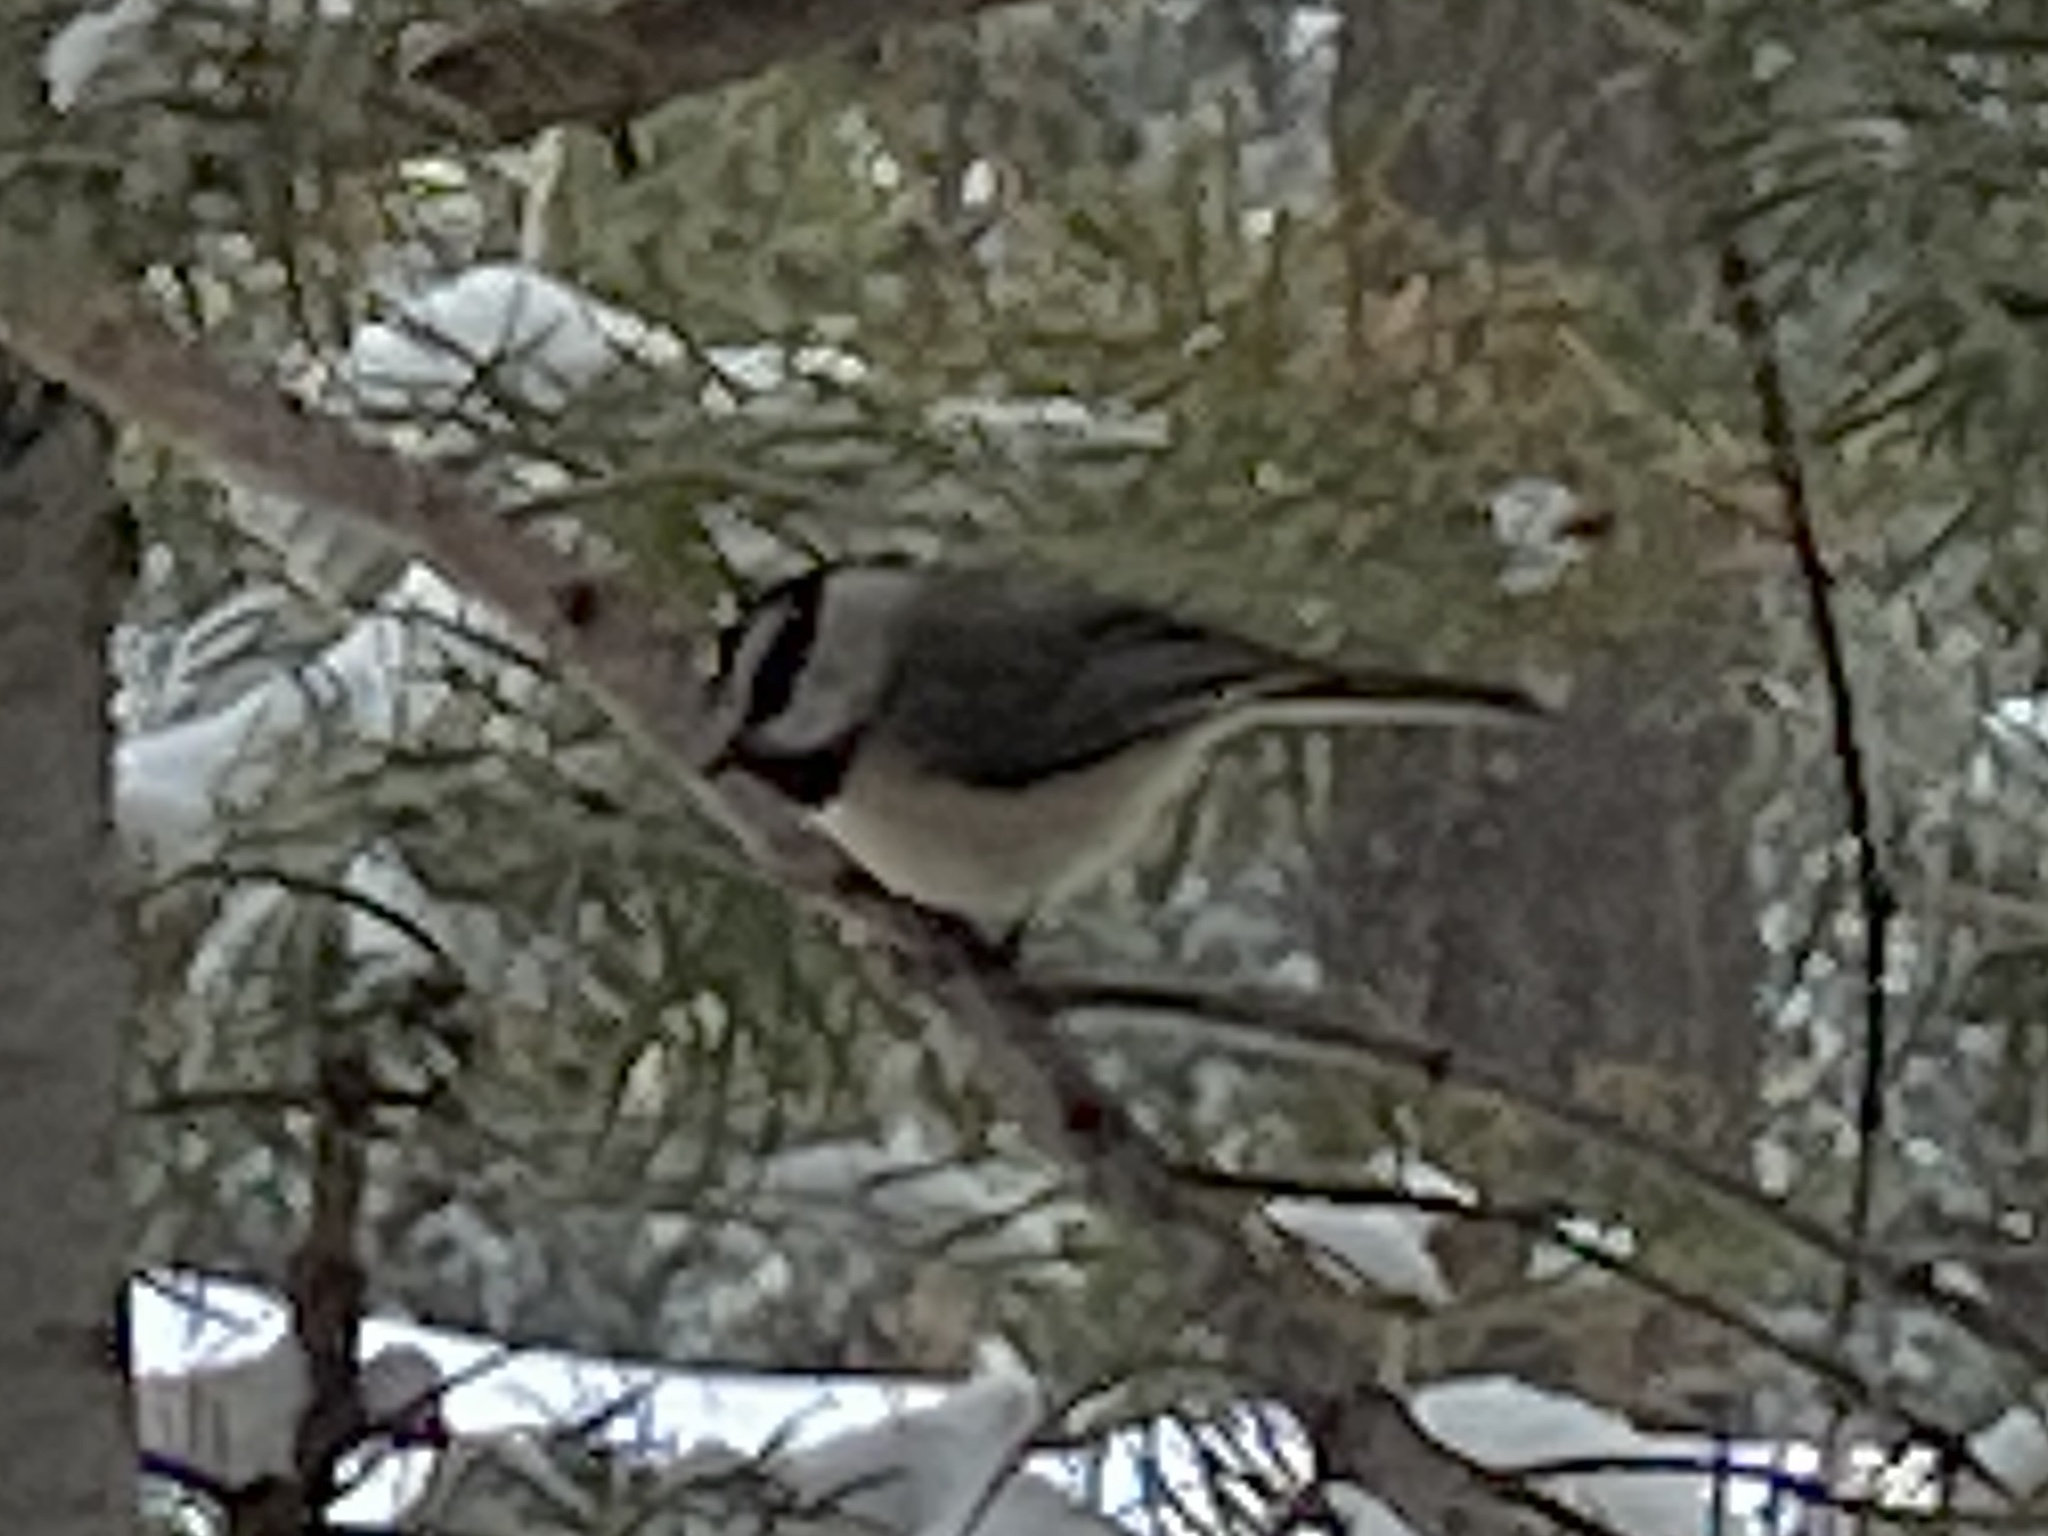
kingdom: Animalia
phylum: Chordata
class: Aves
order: Passeriformes
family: Paridae
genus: Poecile
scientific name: Poecile gambeli
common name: Mountain chickadee
